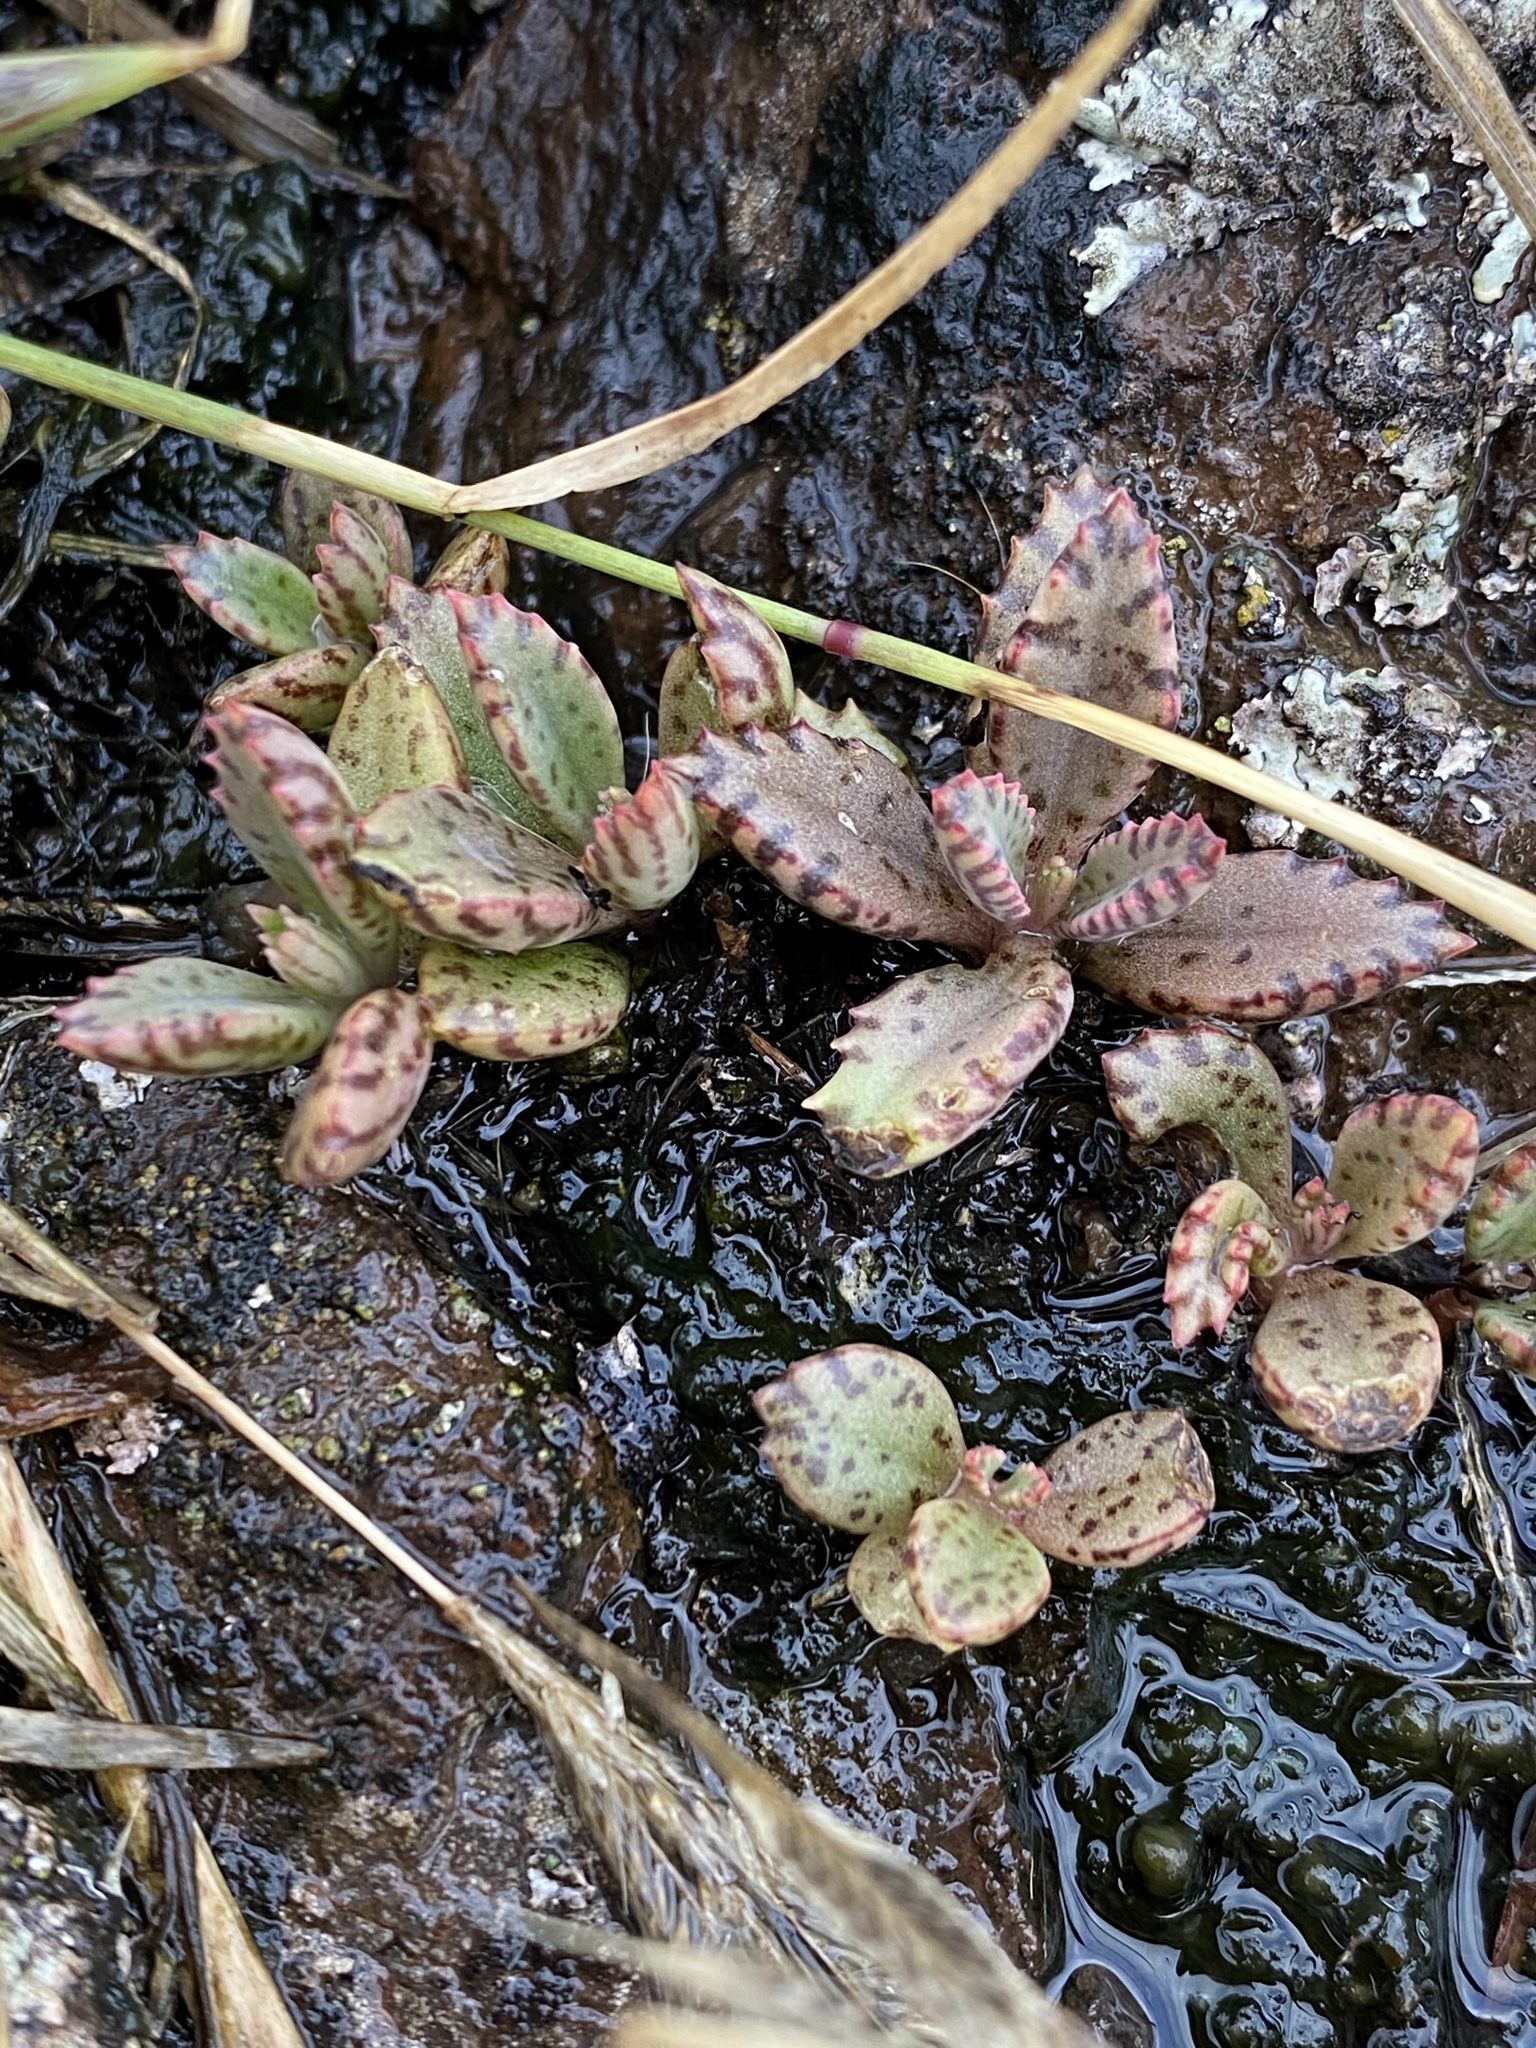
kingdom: Plantae
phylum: Tracheophyta
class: Magnoliopsida
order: Saxifragales
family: Crassulaceae
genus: Kalanchoe
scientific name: Kalanchoe houghtonii
